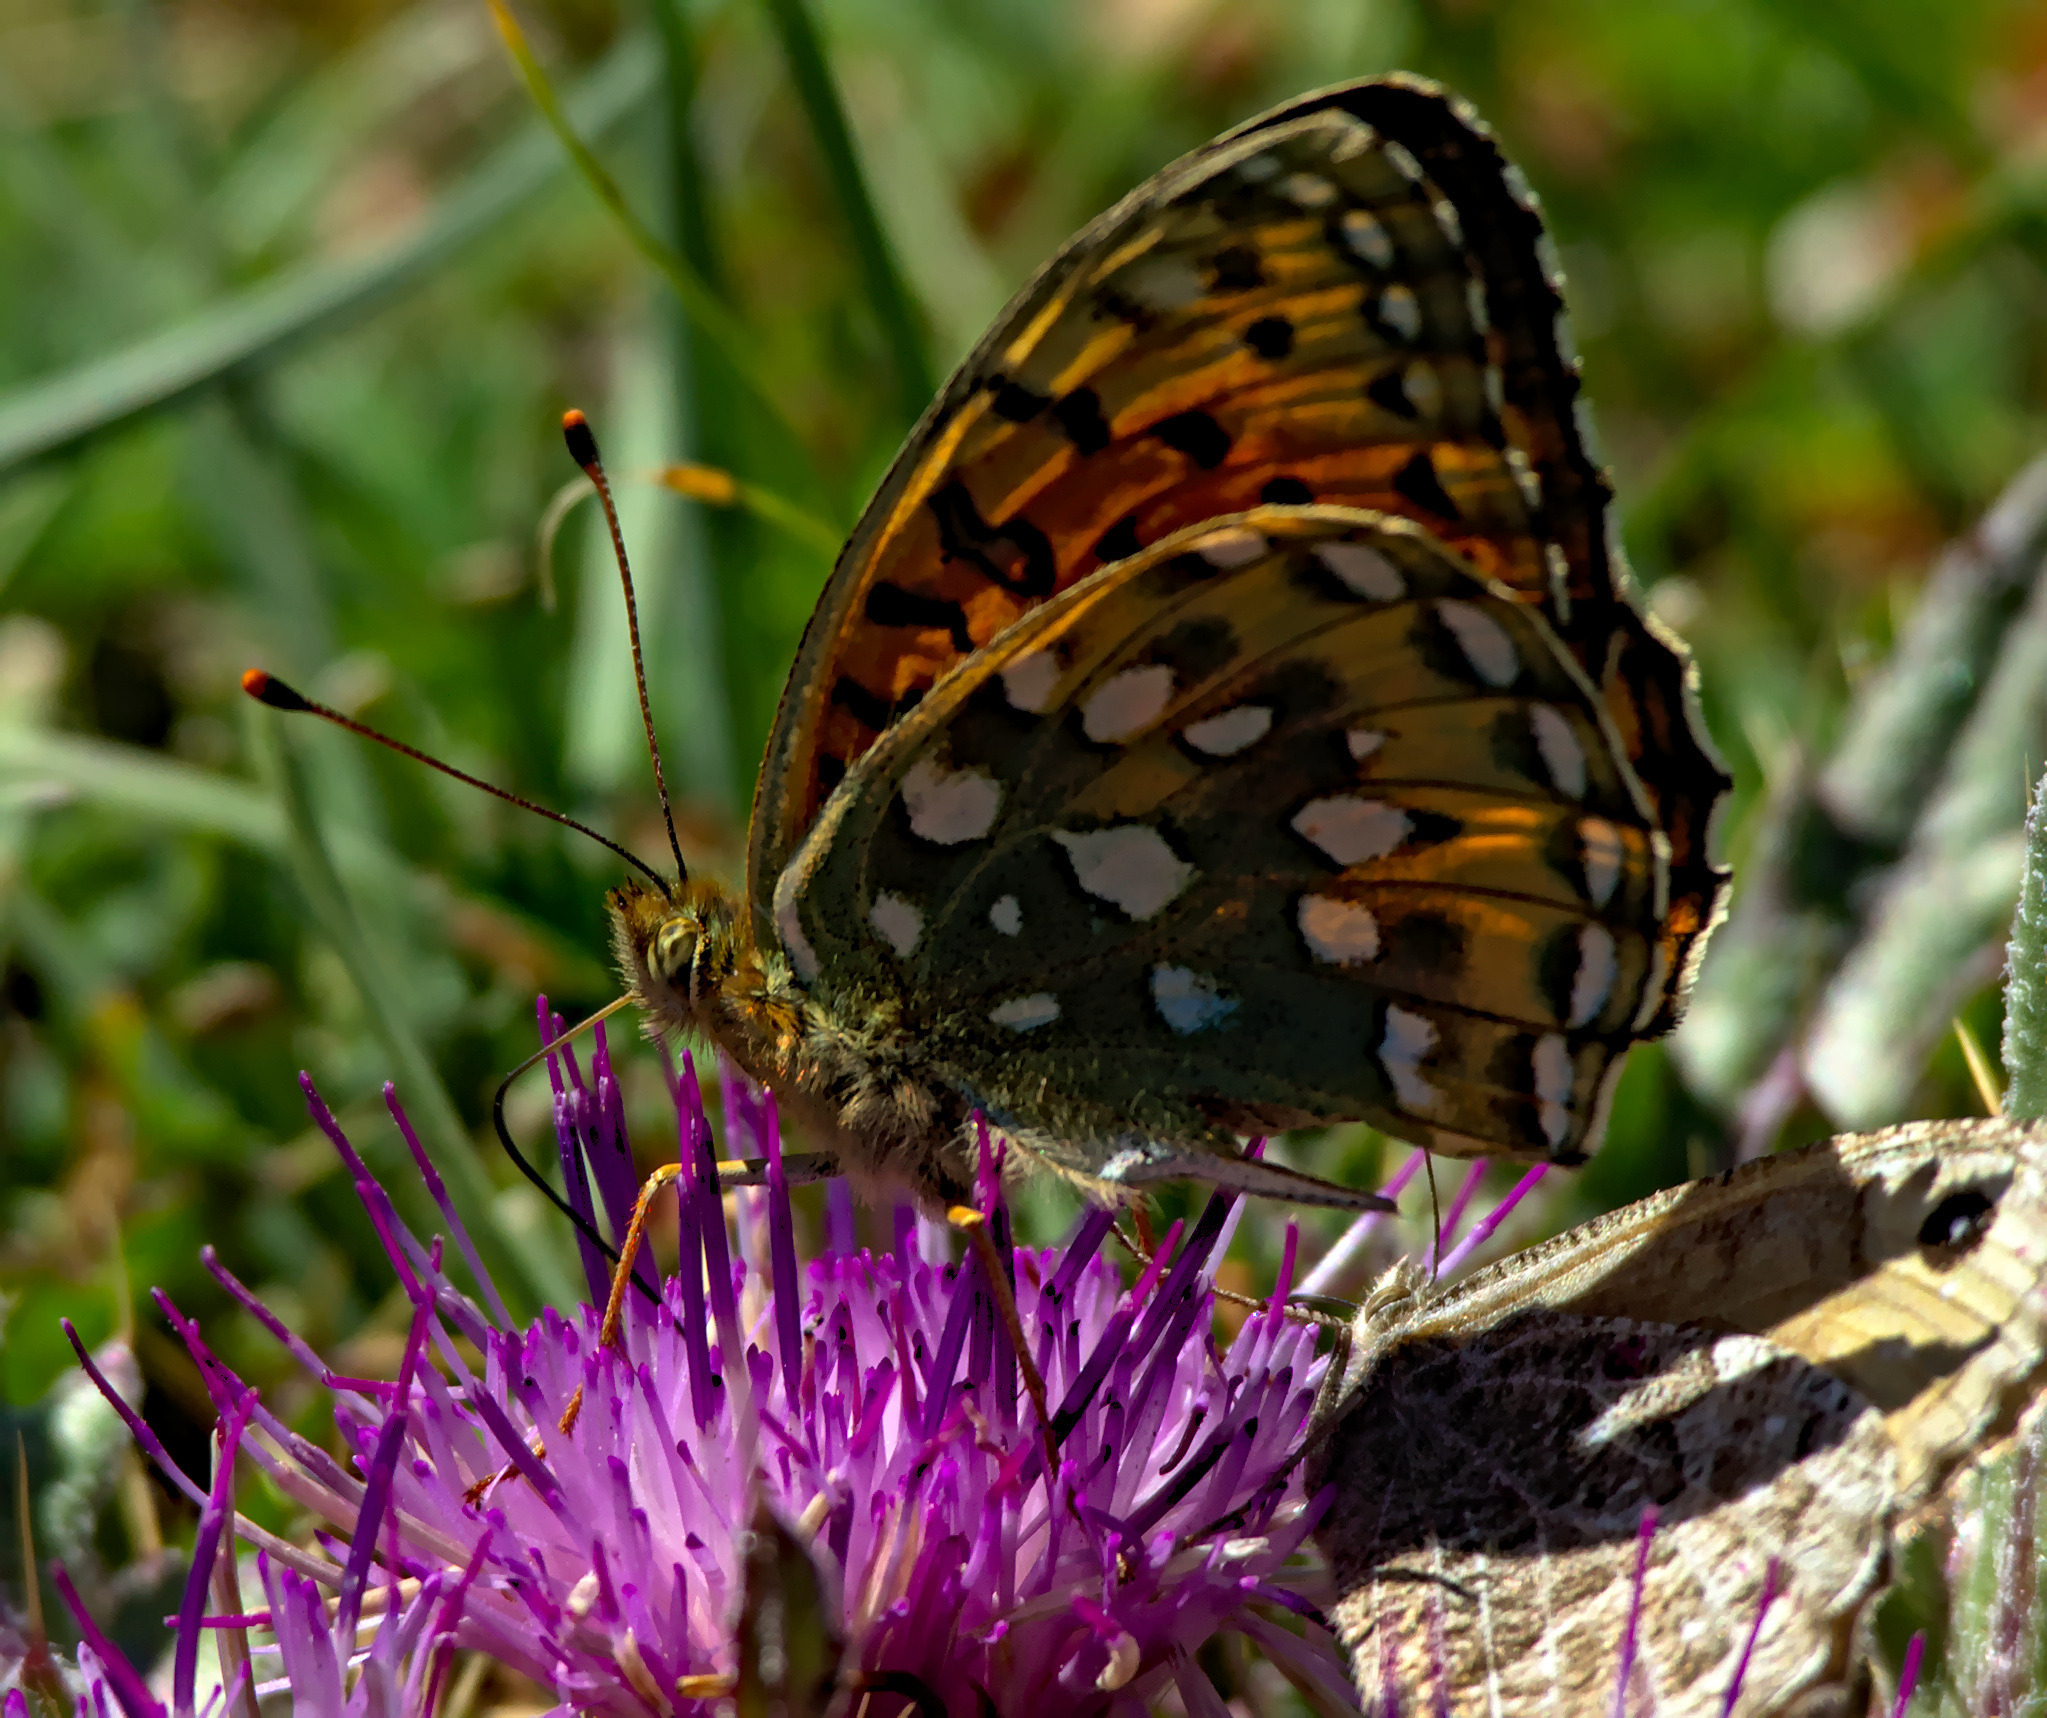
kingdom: Animalia
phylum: Arthropoda
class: Insecta
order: Lepidoptera
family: Nymphalidae
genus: Speyeria
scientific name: Speyeria aglaja
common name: Dark green fritillary
